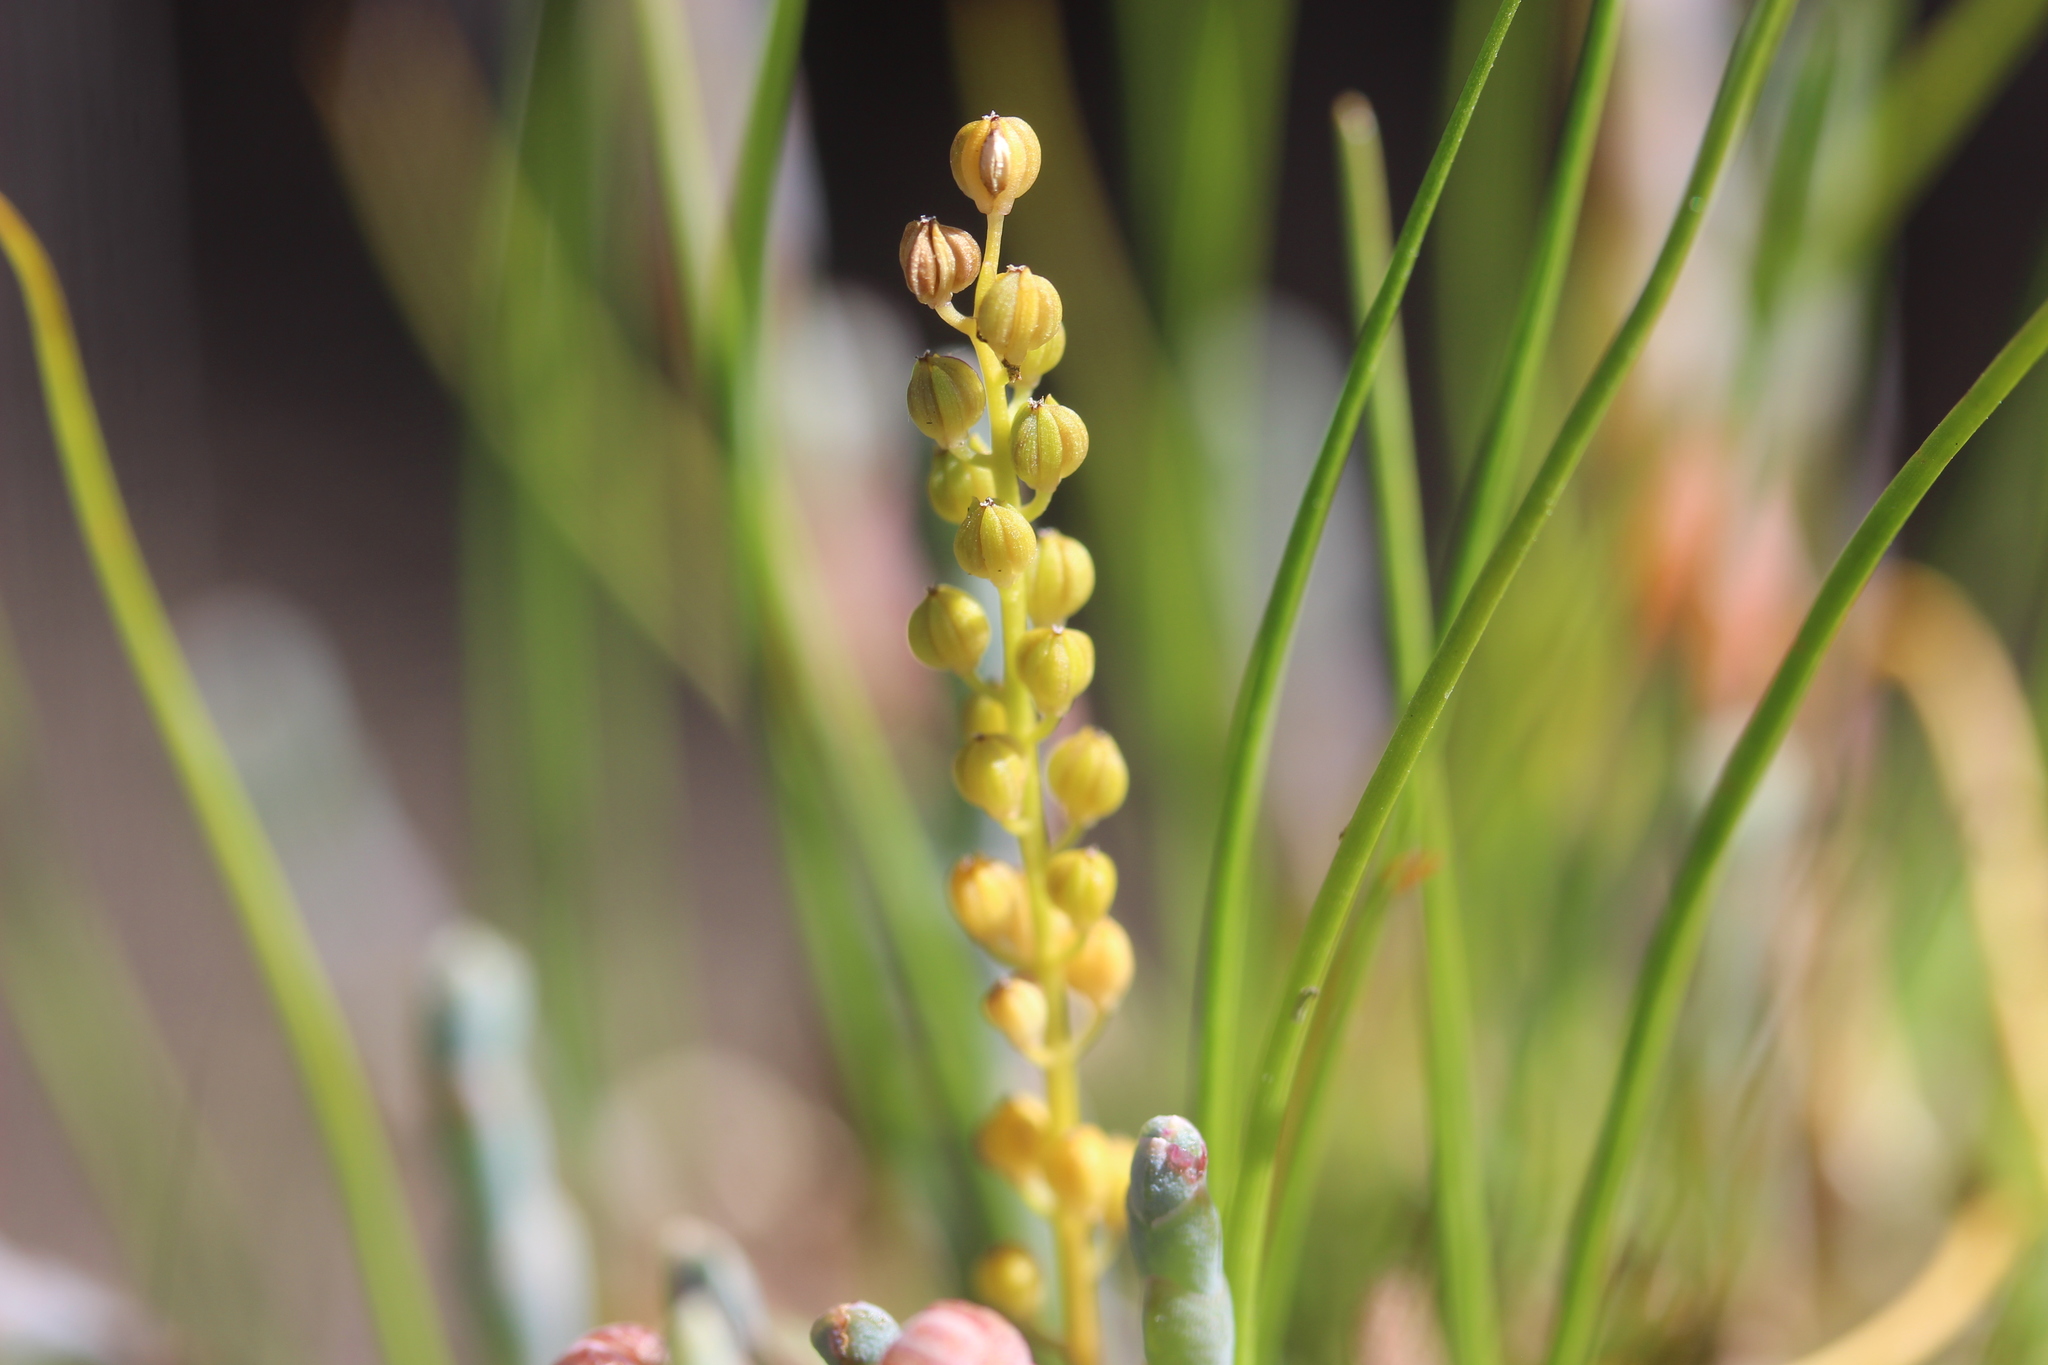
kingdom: Plantae
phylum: Tracheophyta
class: Liliopsida
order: Alismatales
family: Juncaginaceae
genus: Triglochin
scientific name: Triglochin striata
